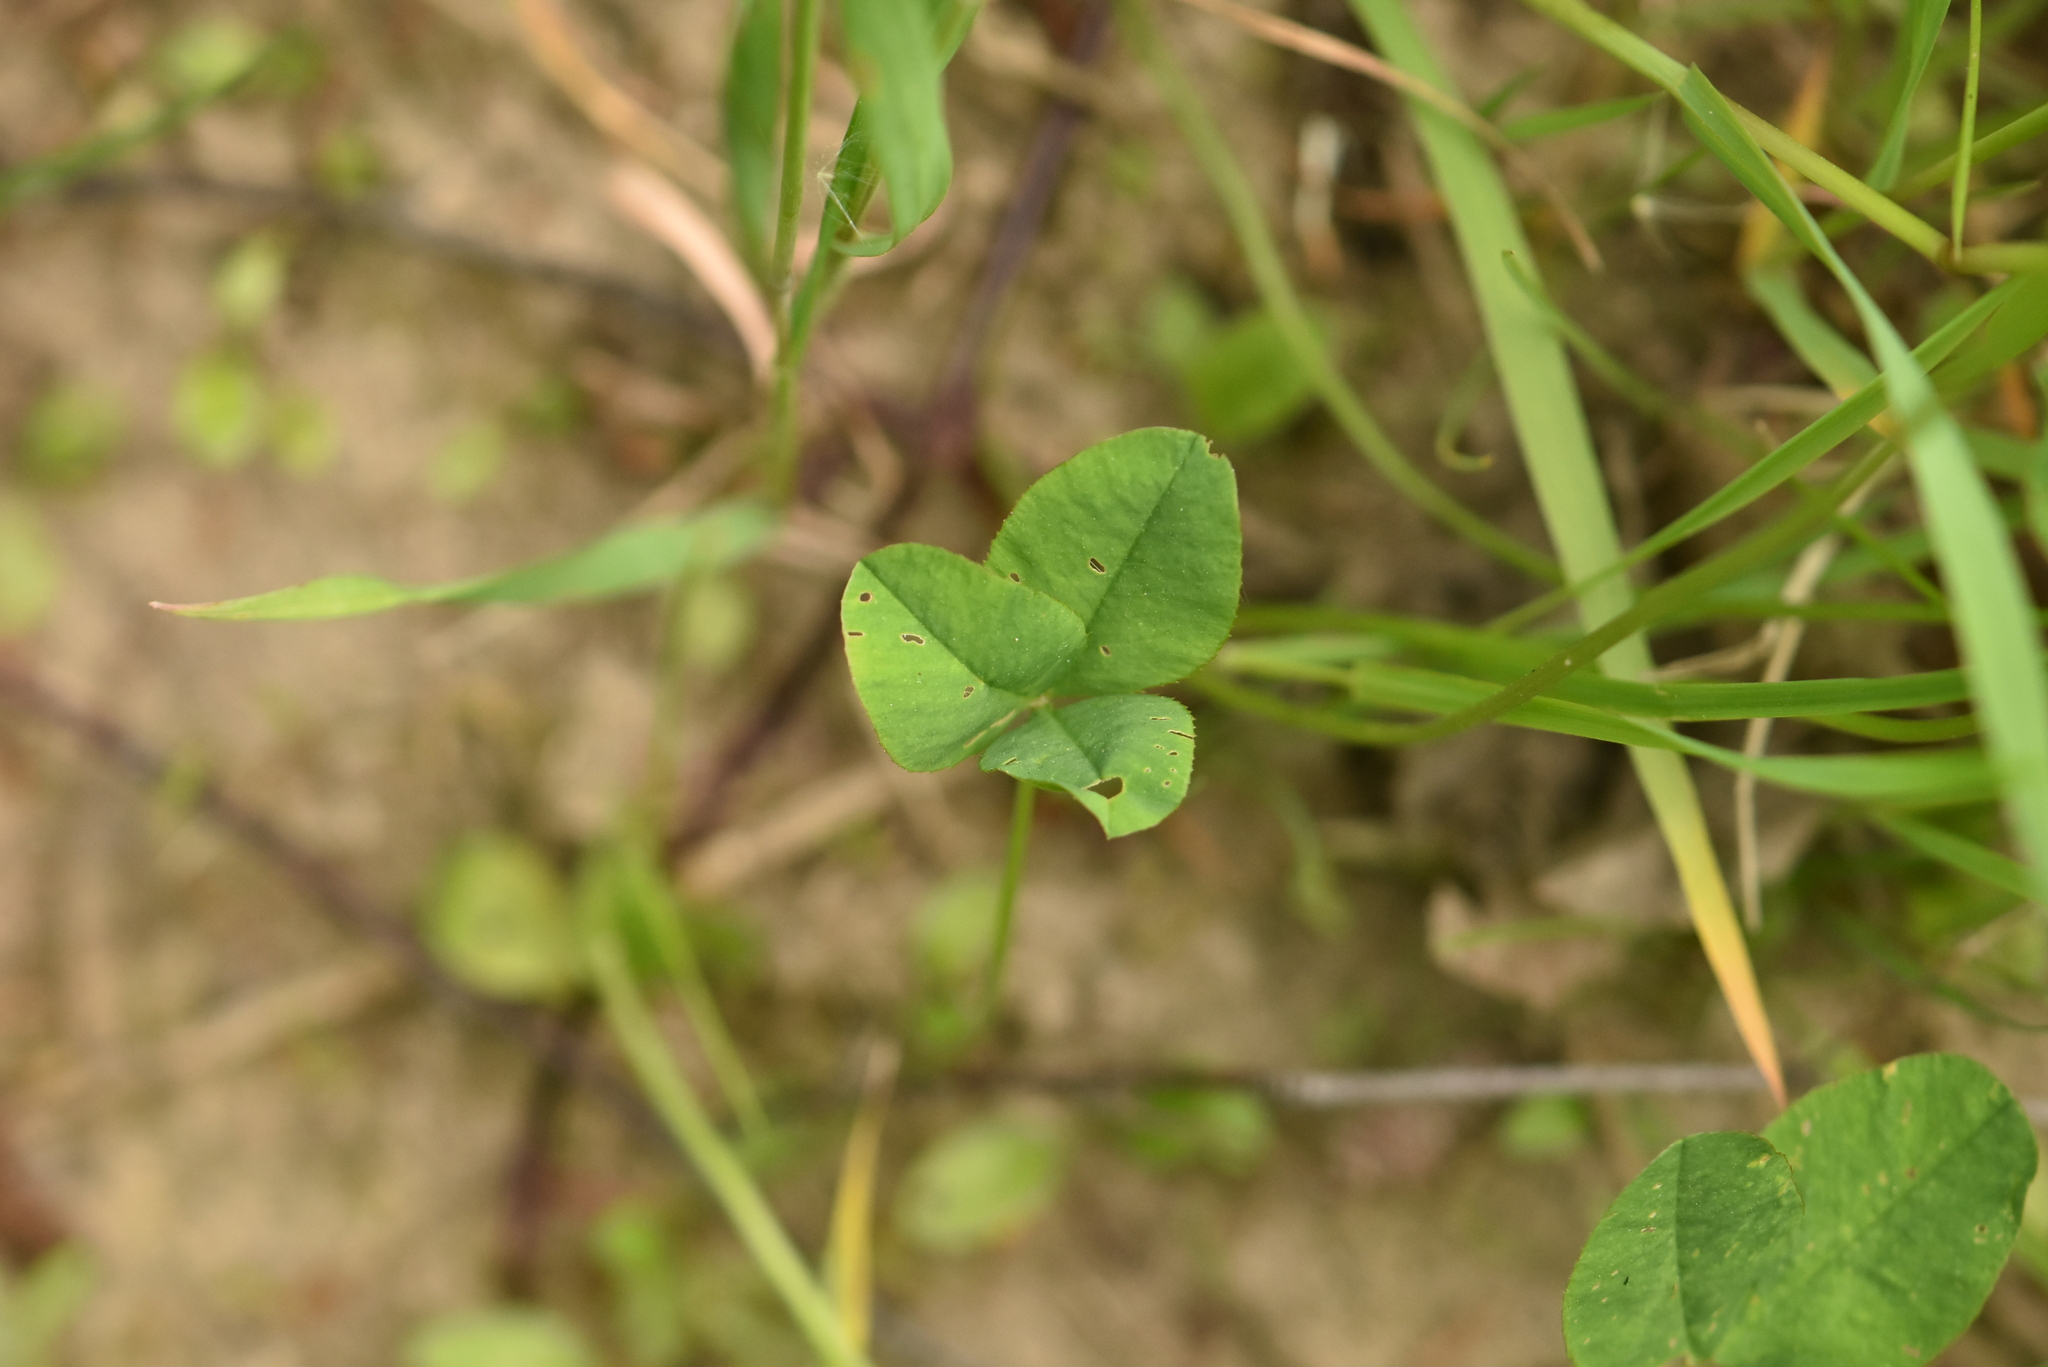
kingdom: Plantae
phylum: Tracheophyta
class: Magnoliopsida
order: Fabales
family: Fabaceae
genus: Trifolium
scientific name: Trifolium repens
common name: White clover
